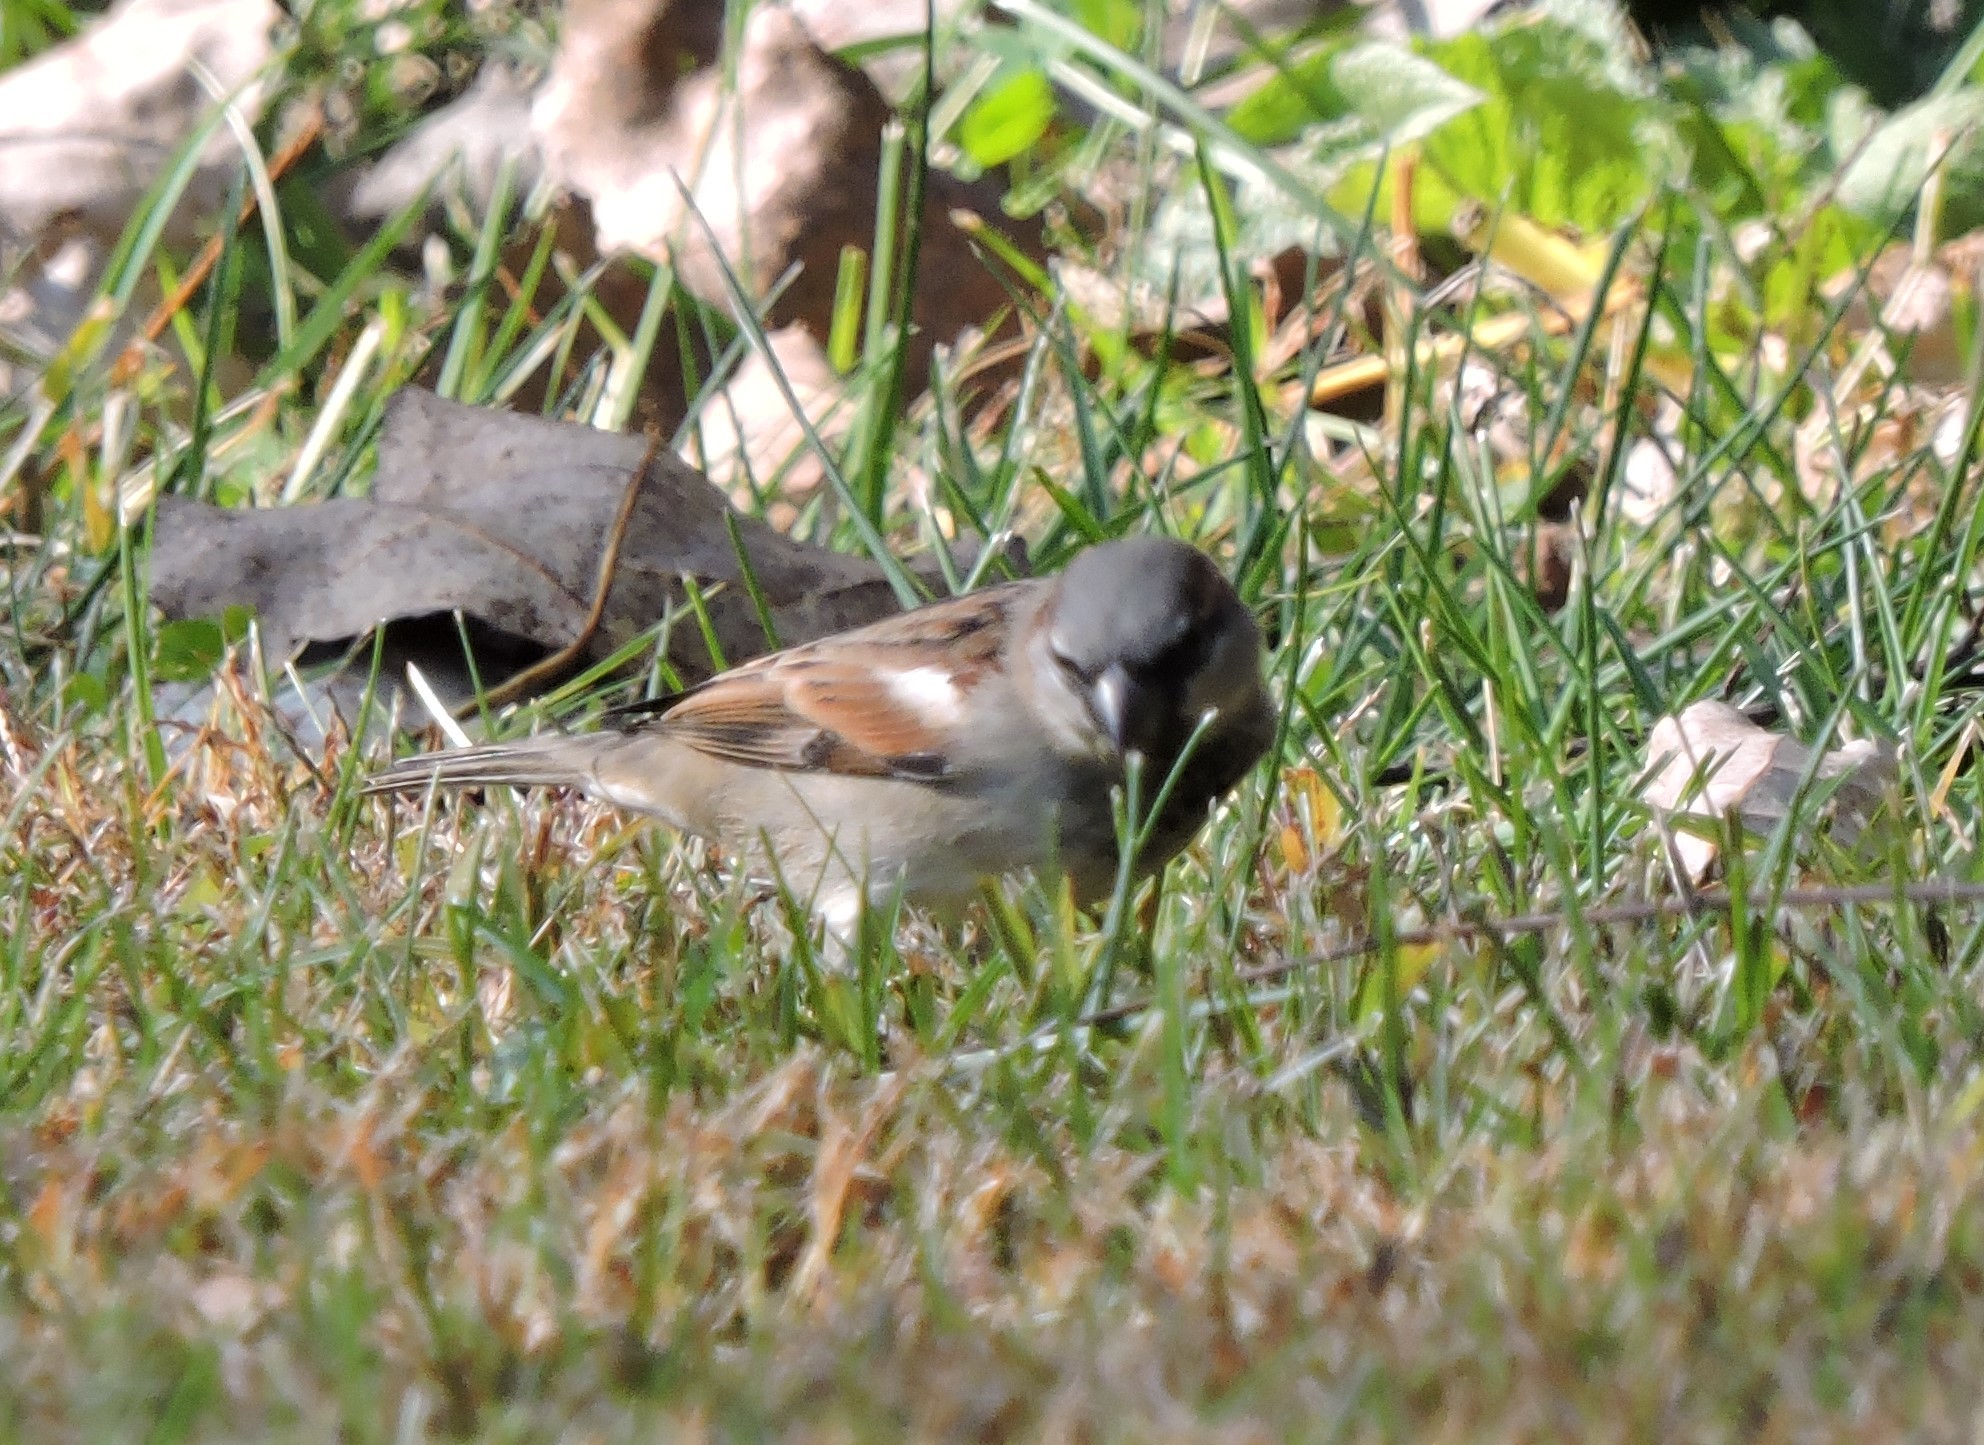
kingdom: Animalia
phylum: Chordata
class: Aves
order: Passeriformes
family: Passeridae
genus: Passer
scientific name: Passer domesticus
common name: House sparrow
